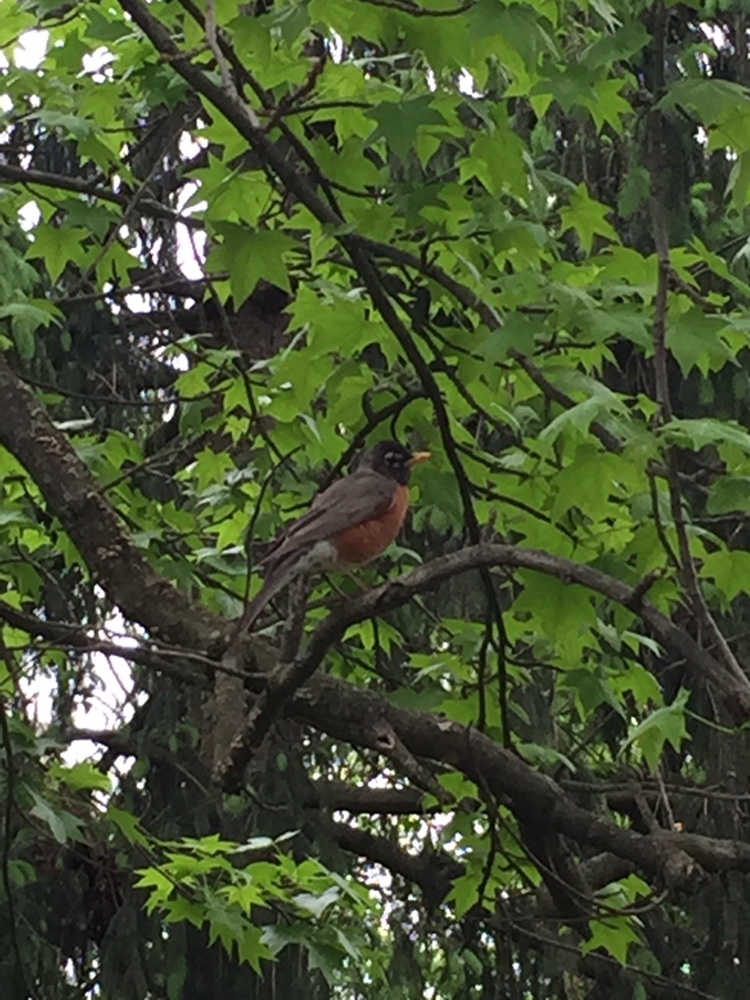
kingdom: Animalia
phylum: Chordata
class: Aves
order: Passeriformes
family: Turdidae
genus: Turdus
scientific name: Turdus migratorius
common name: American robin
